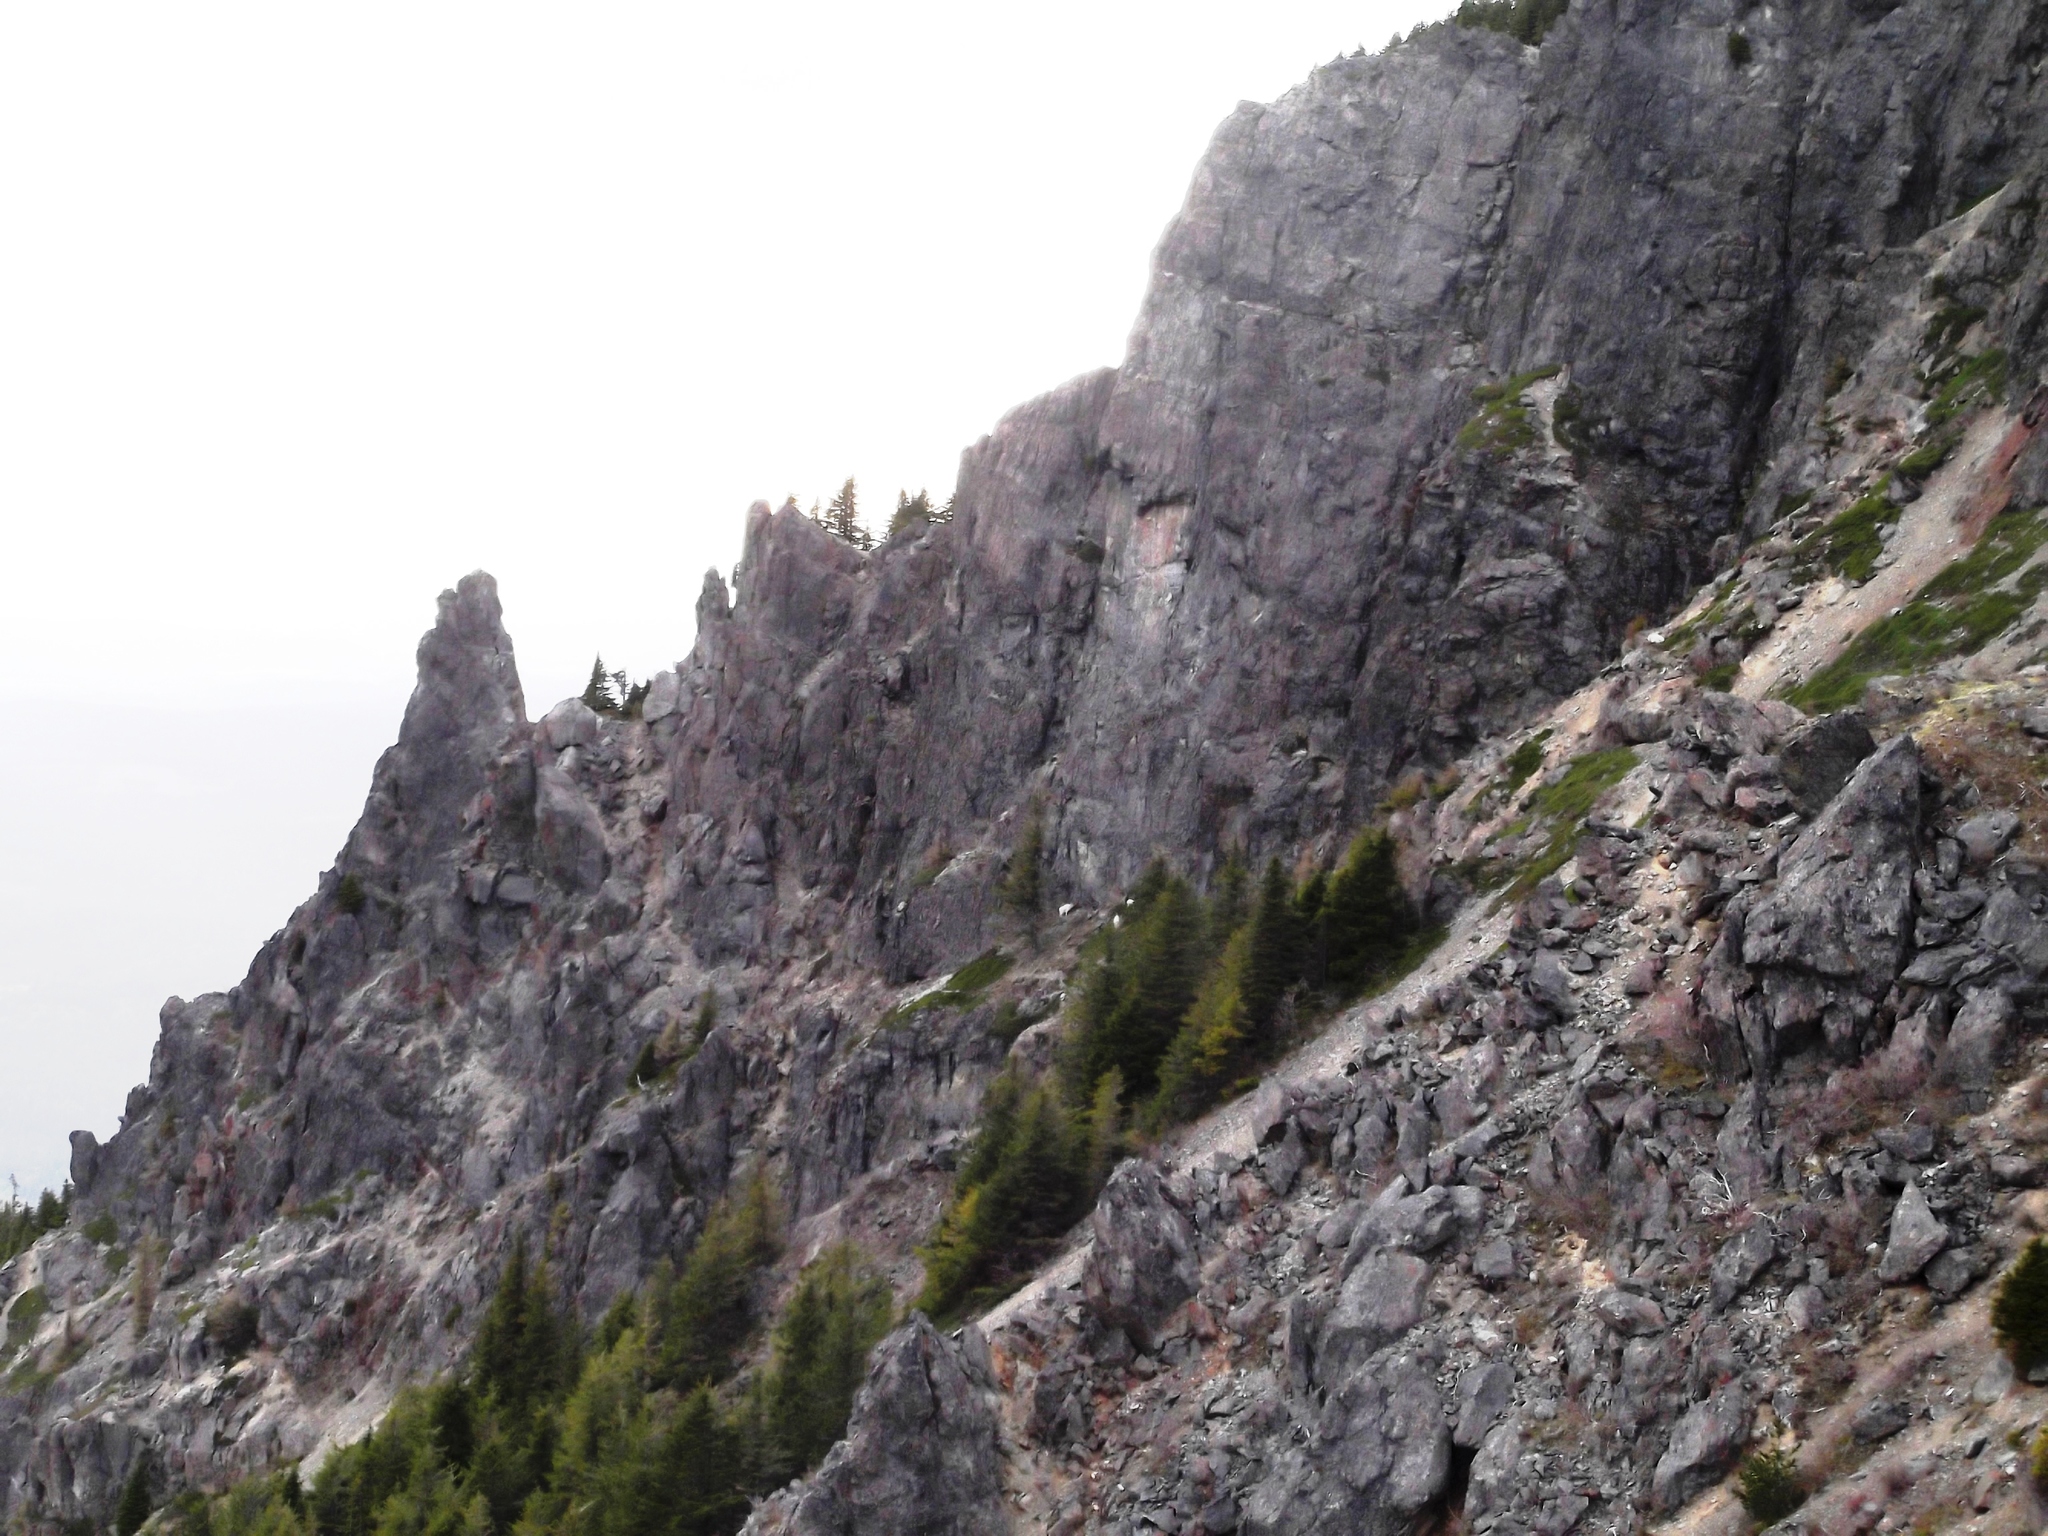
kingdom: Animalia
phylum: Chordata
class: Mammalia
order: Artiodactyla
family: Bovidae
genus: Oreamnos
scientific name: Oreamnos americanus
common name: Mountain goat
